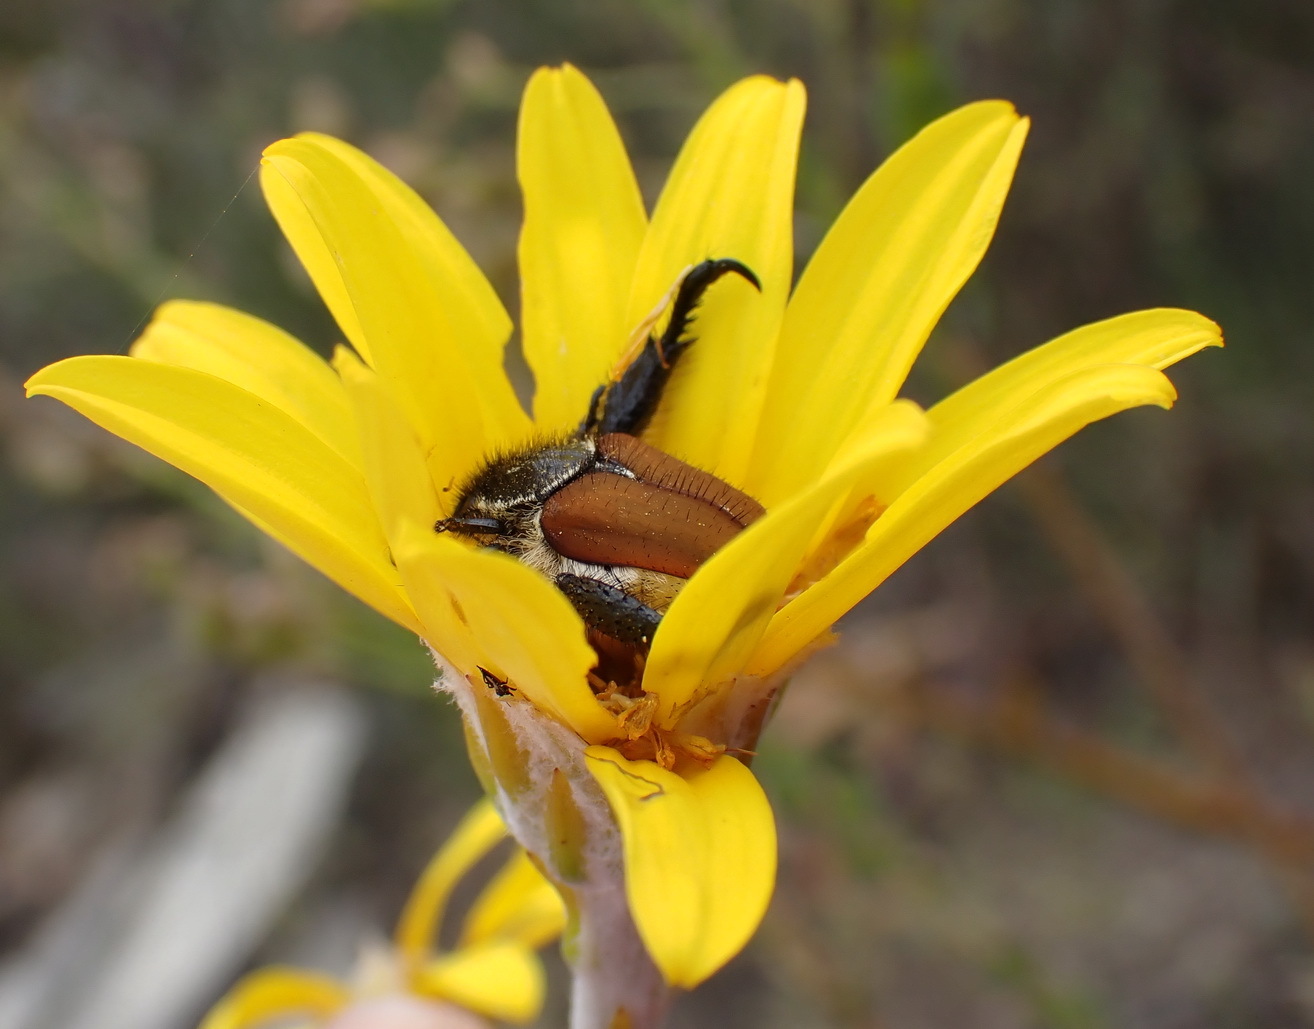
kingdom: Plantae
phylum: Tracheophyta
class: Magnoliopsida
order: Asterales
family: Asteraceae
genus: Osteospermum
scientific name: Osteospermum junceum
